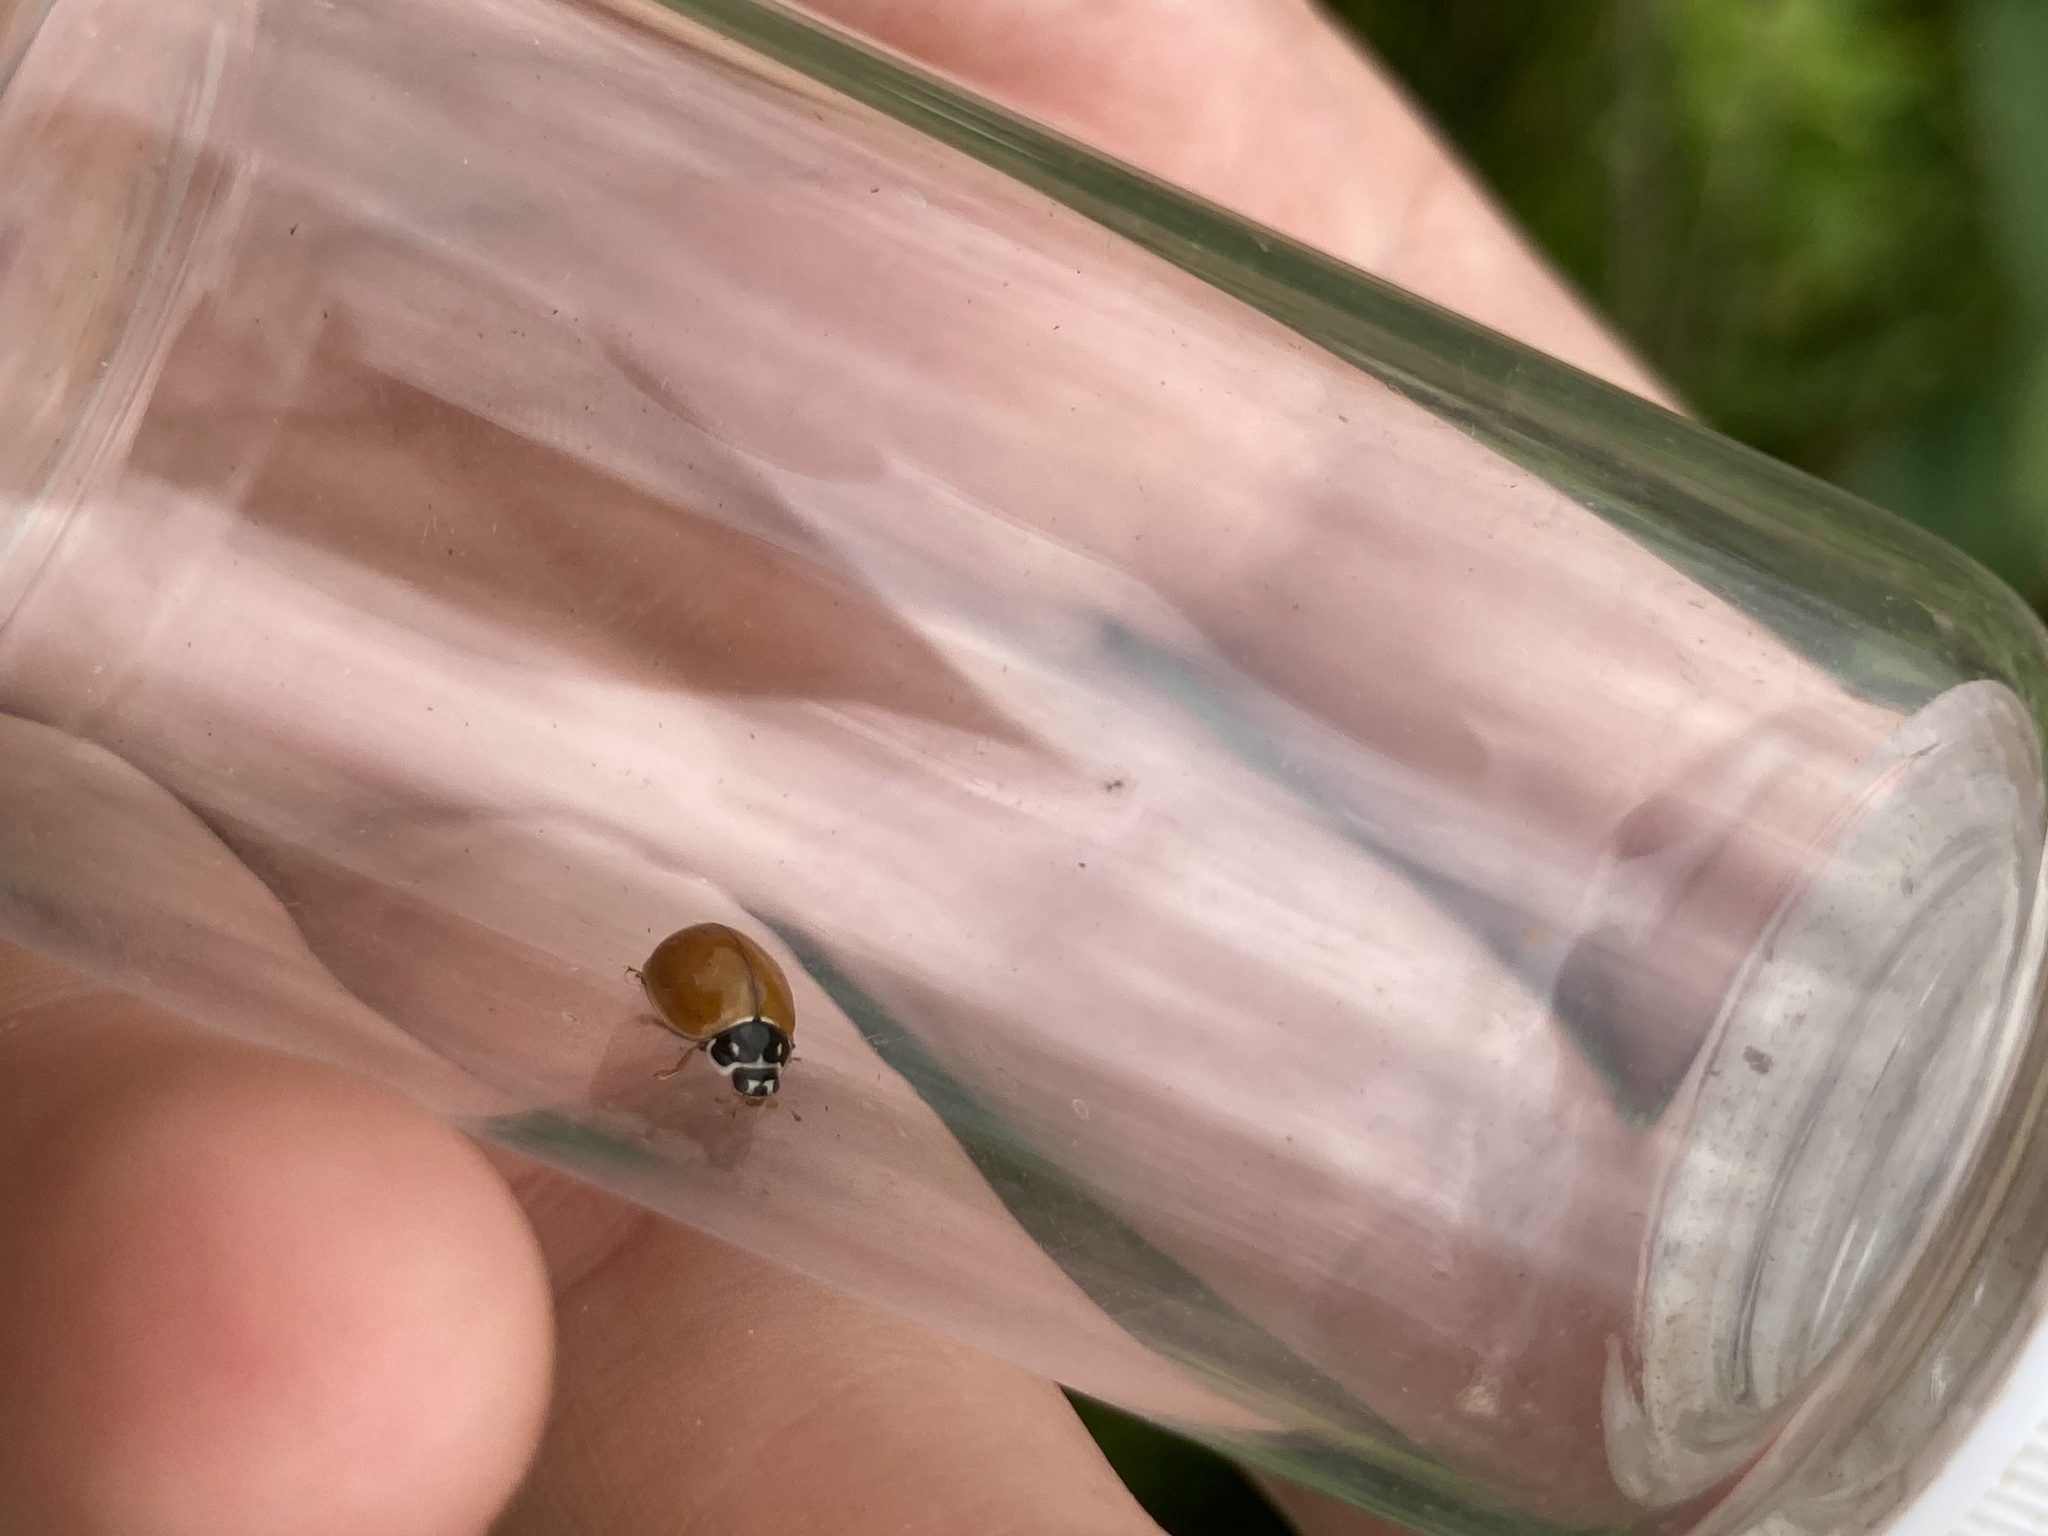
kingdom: Animalia
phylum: Arthropoda
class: Insecta
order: Coleoptera
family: Coccinellidae
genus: Cycloneda
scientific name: Cycloneda munda
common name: Polished lady beetle
